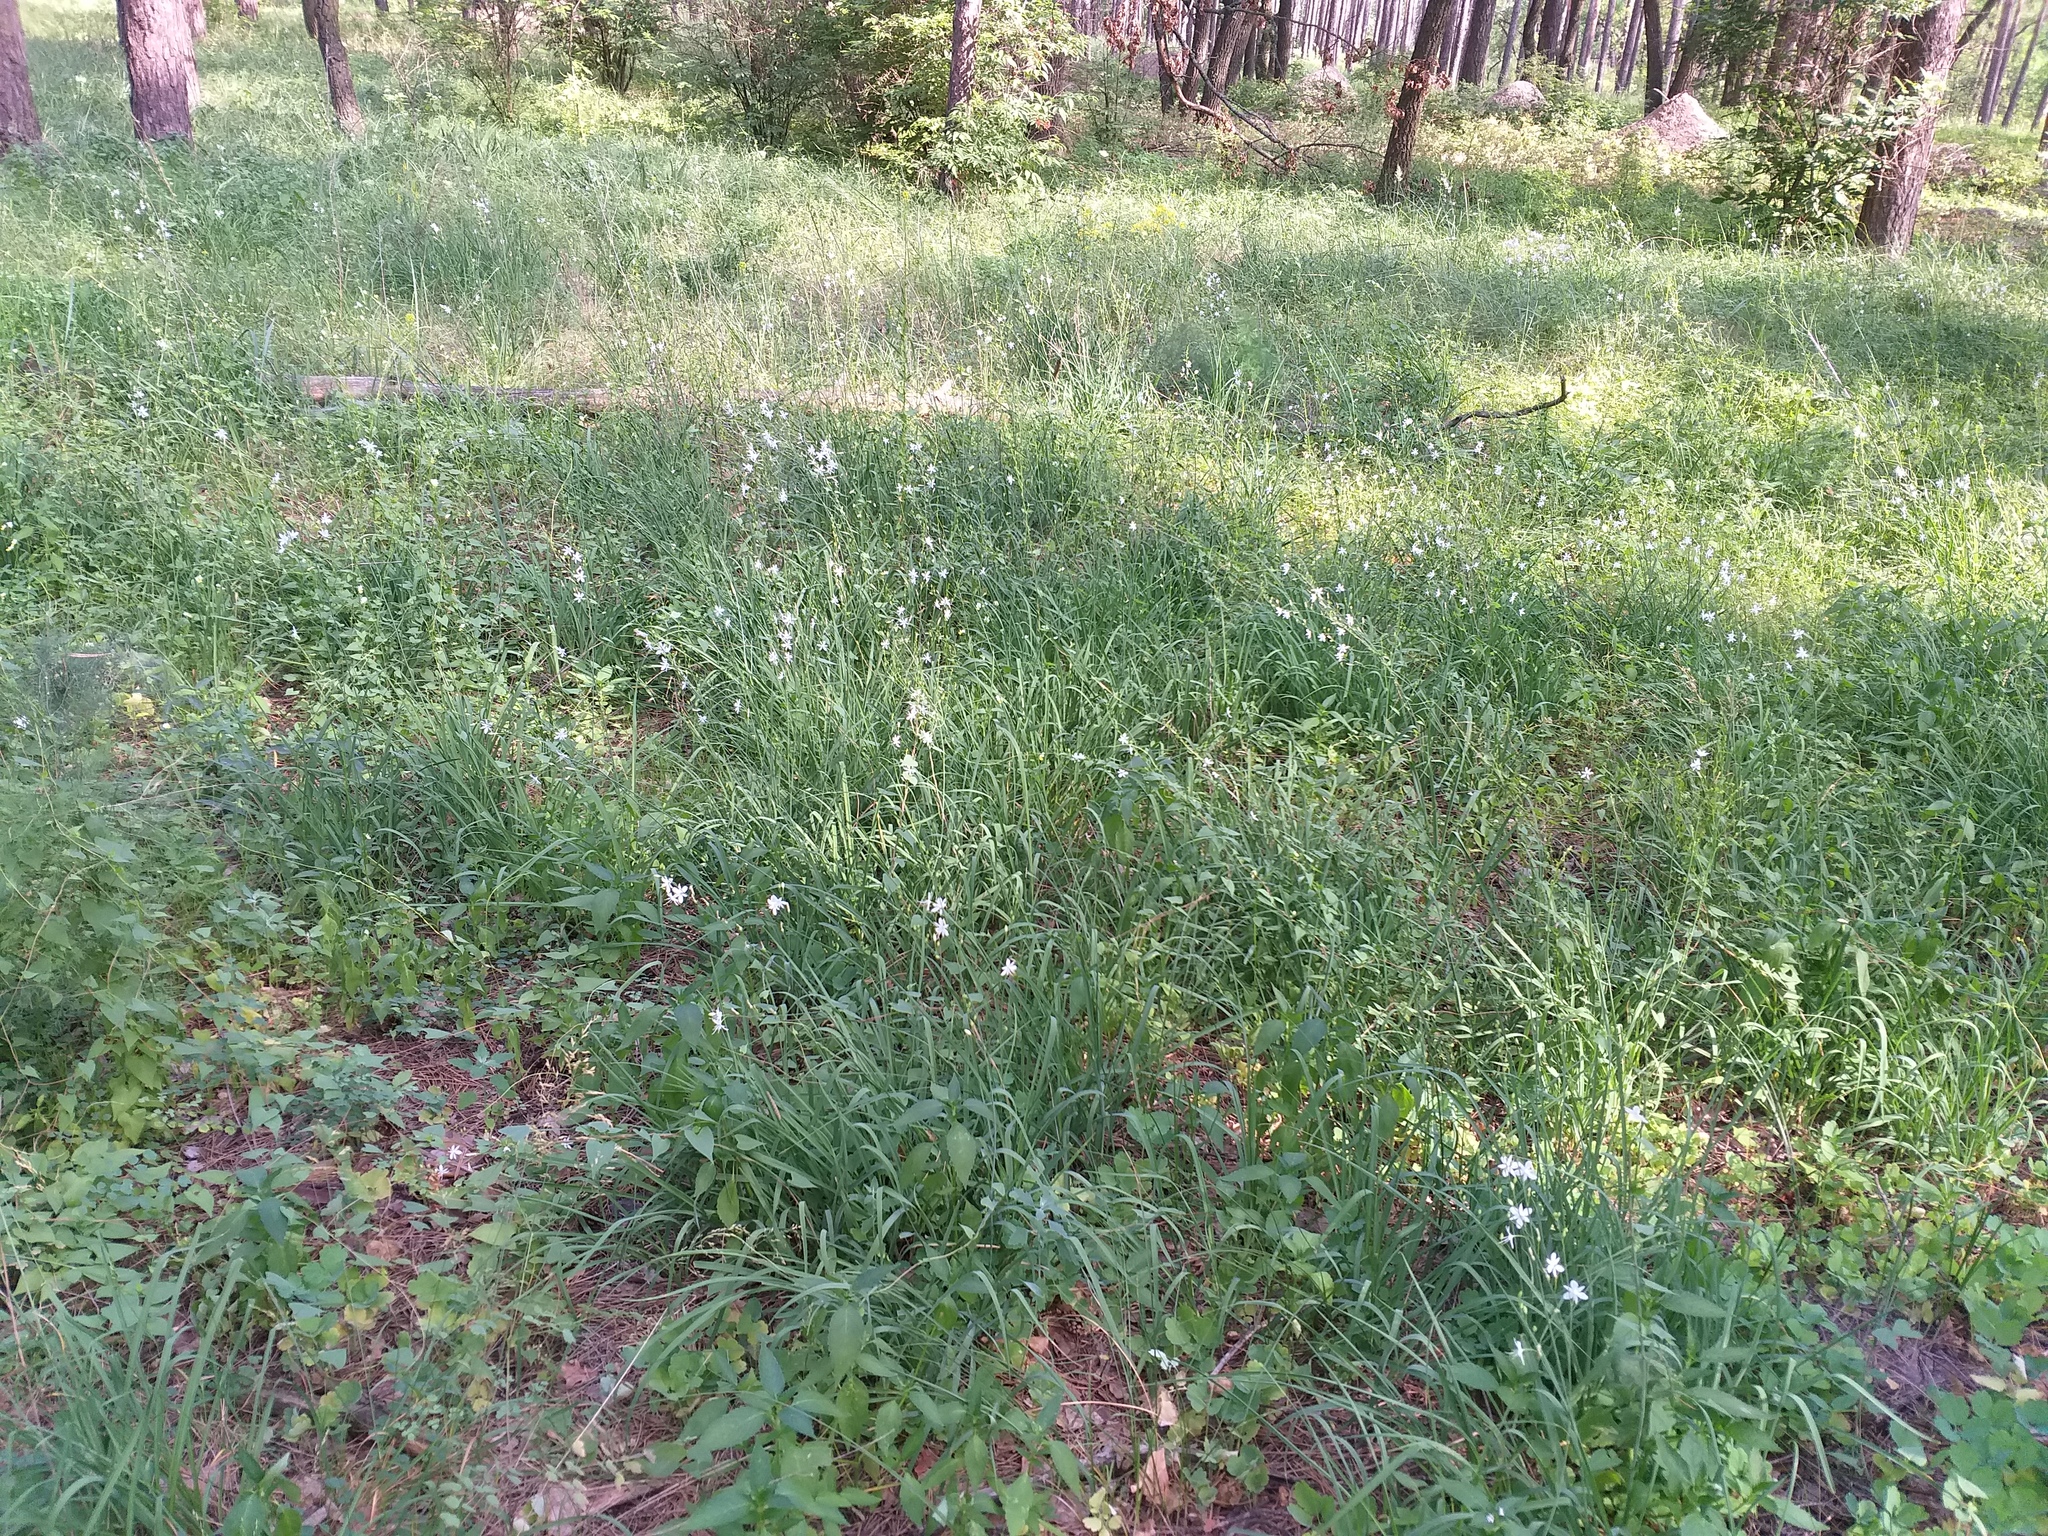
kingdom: Plantae
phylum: Tracheophyta
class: Liliopsida
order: Asparagales
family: Asparagaceae
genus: Anthericum
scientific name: Anthericum ramosum
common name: Branched st. bernard's-lily
